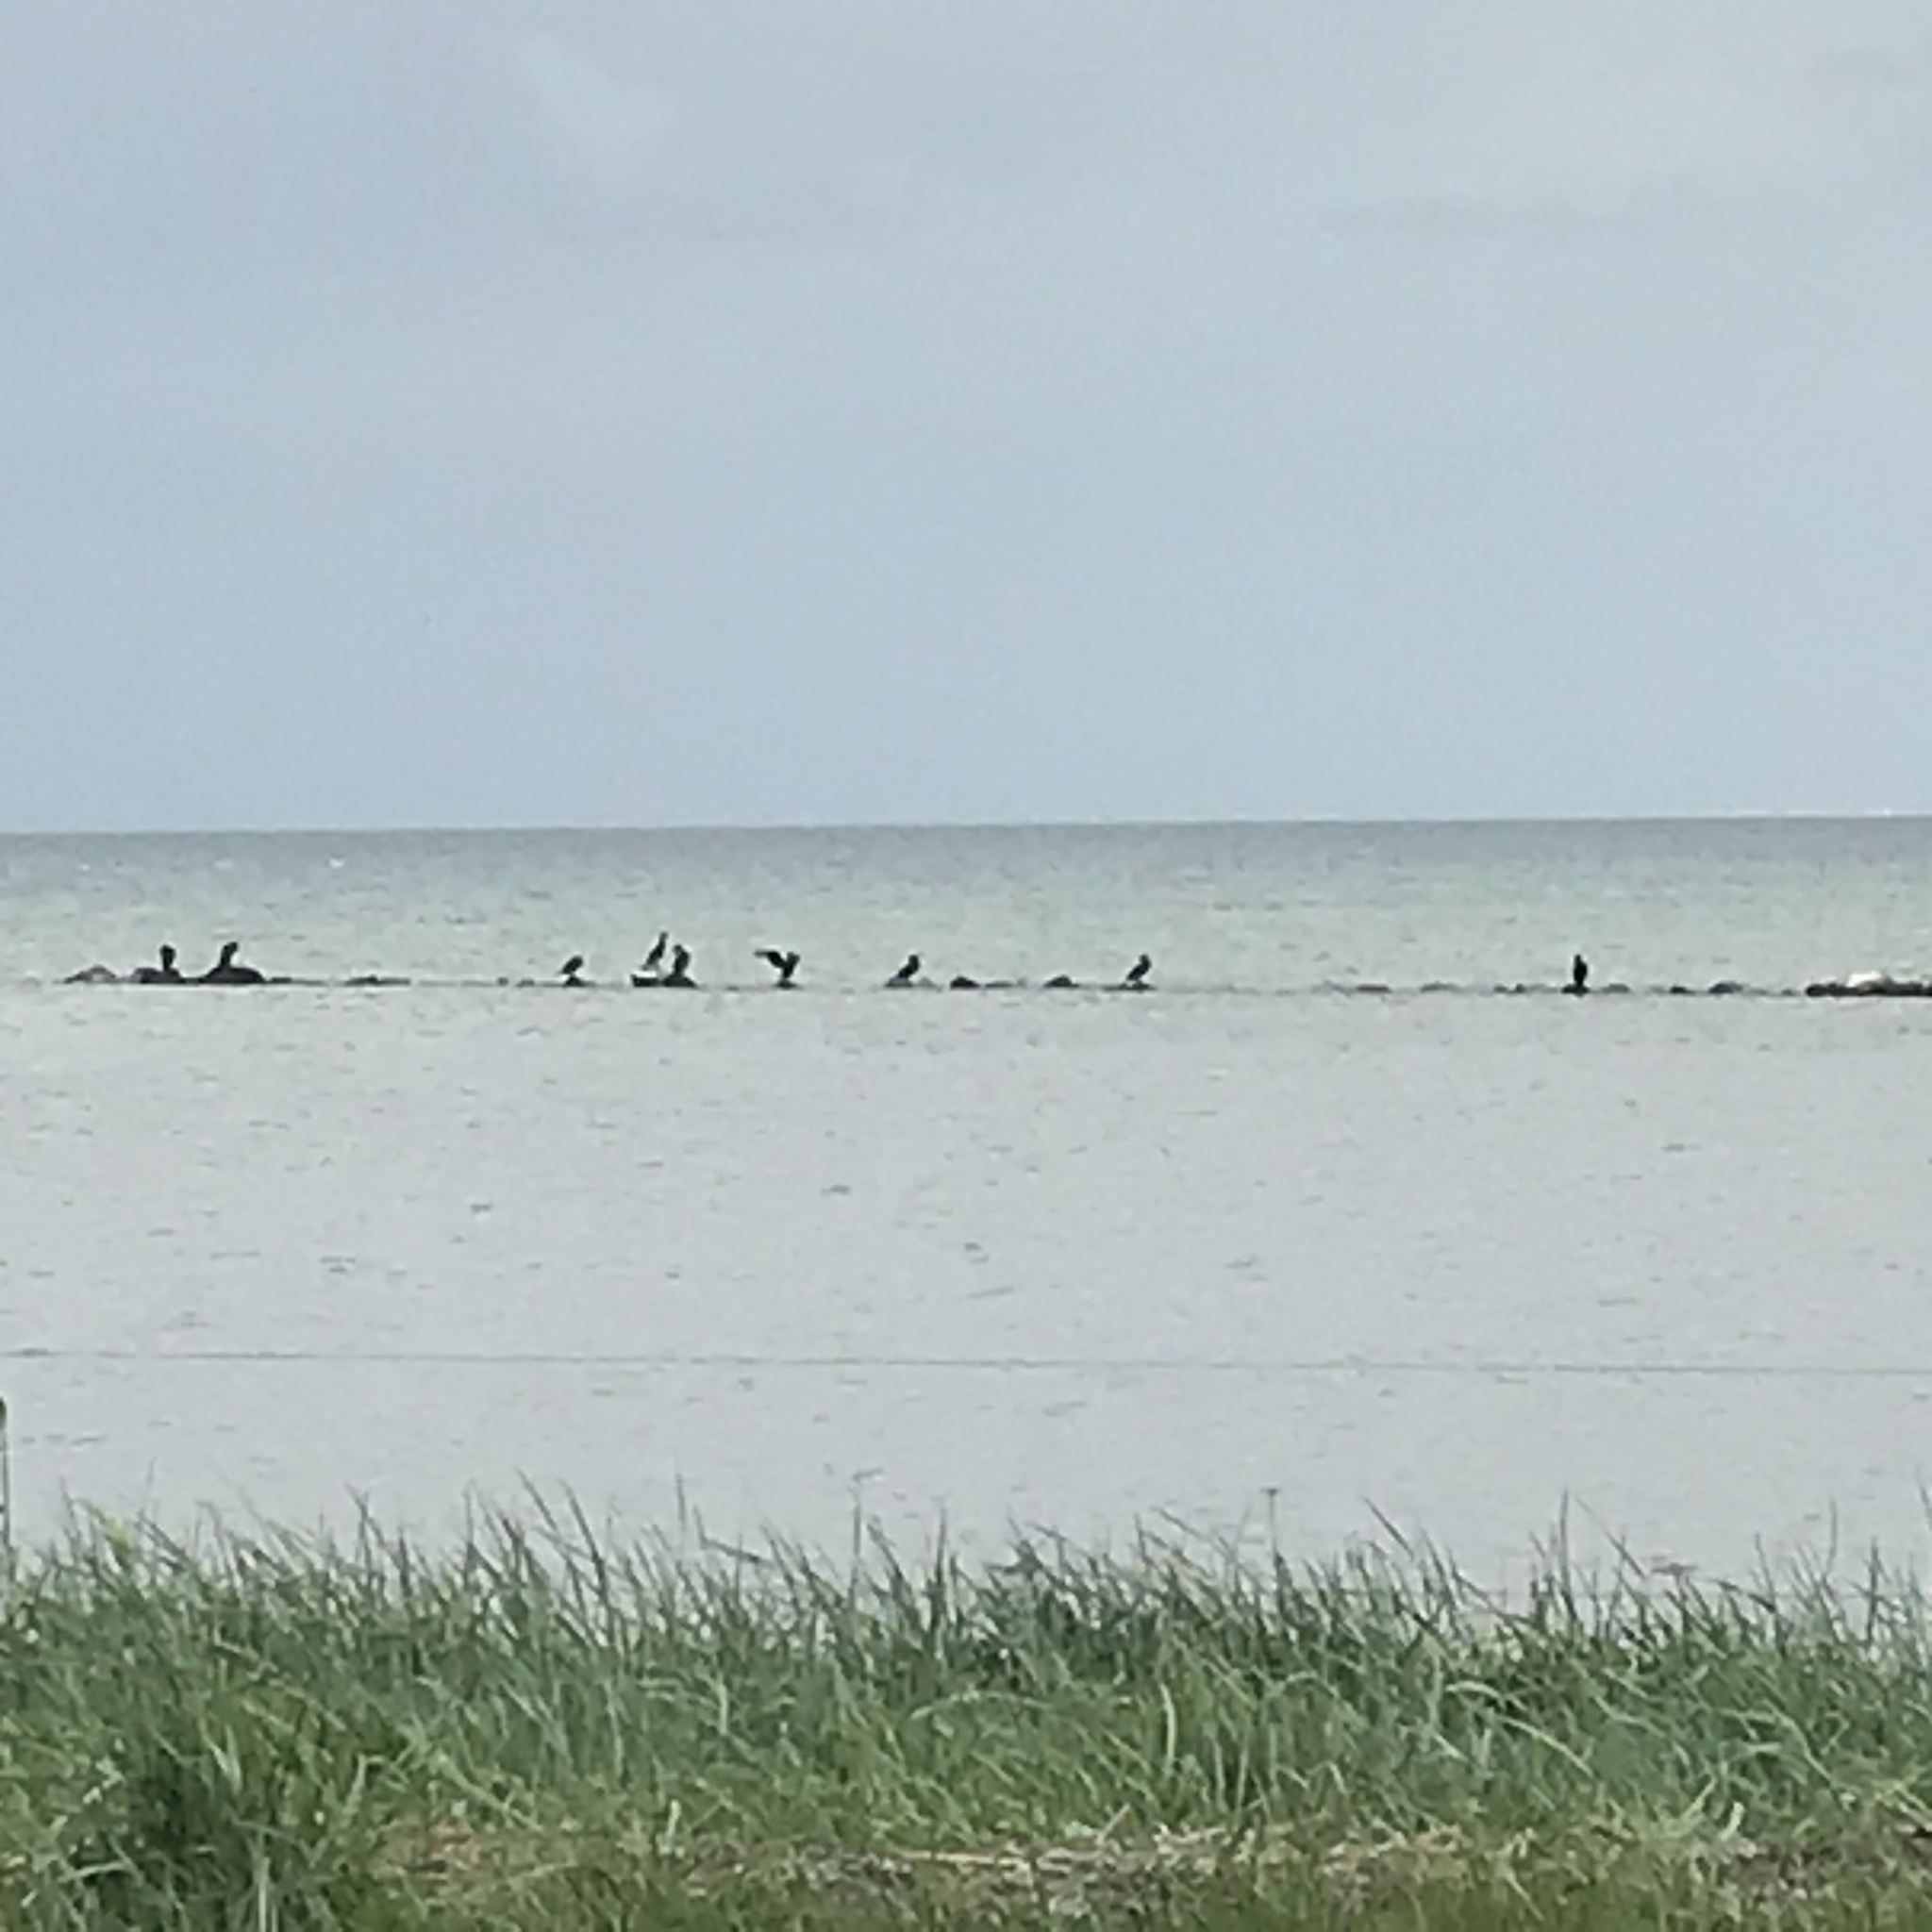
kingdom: Animalia
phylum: Chordata
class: Aves
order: Suliformes
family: Phalacrocoracidae
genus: Phalacrocorax
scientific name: Phalacrocorax carbo
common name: Great cormorant
